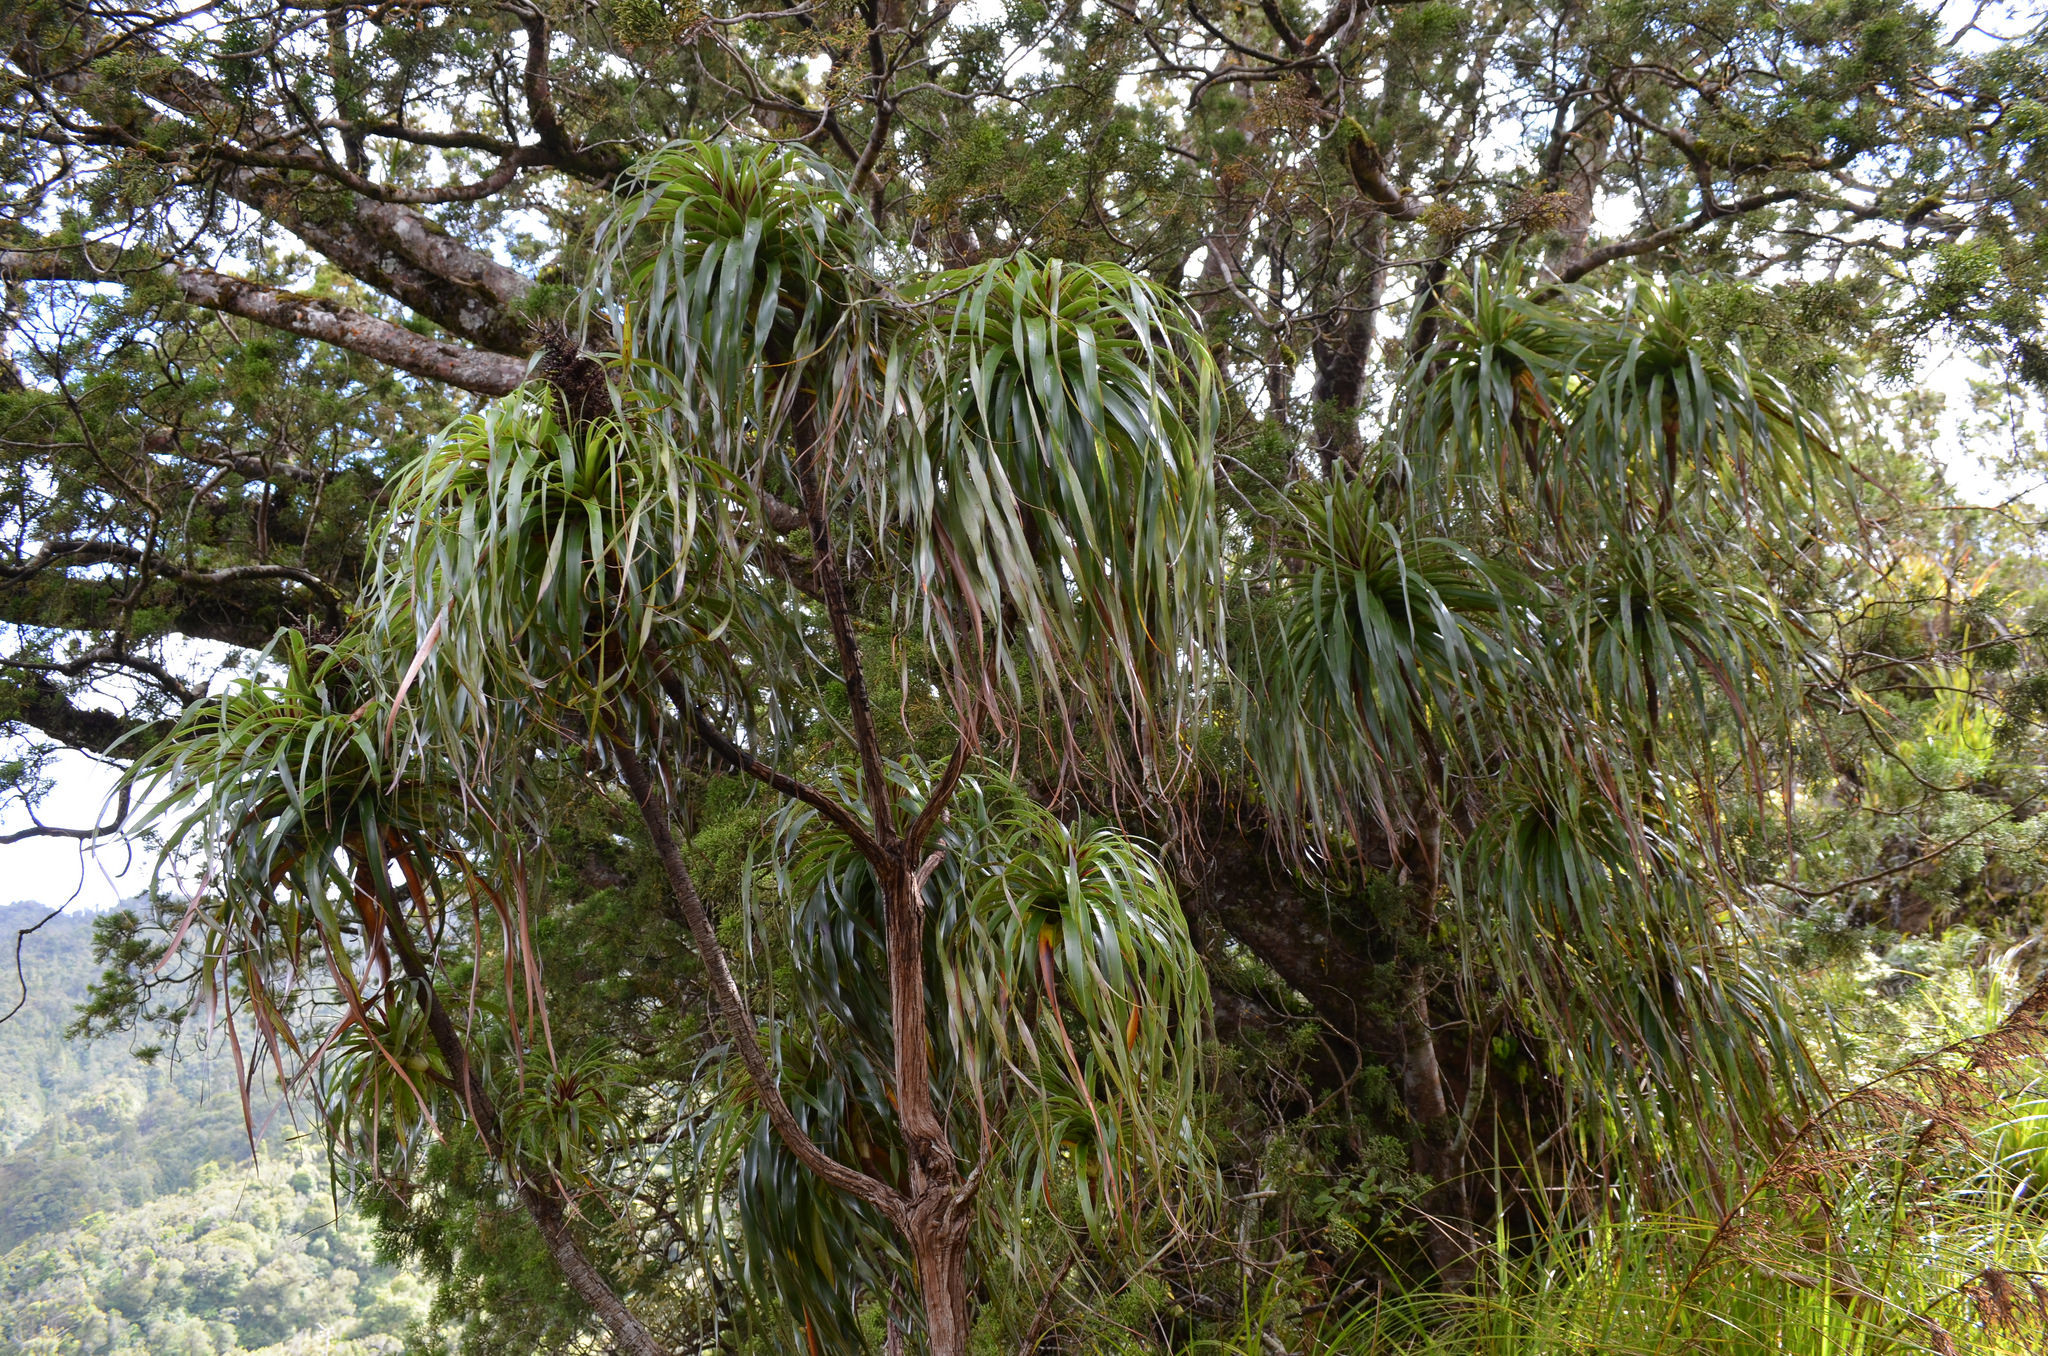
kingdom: Plantae
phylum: Tracheophyta
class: Magnoliopsida
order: Ericales
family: Ericaceae
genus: Dracophyllum
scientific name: Dracophyllum traversii
